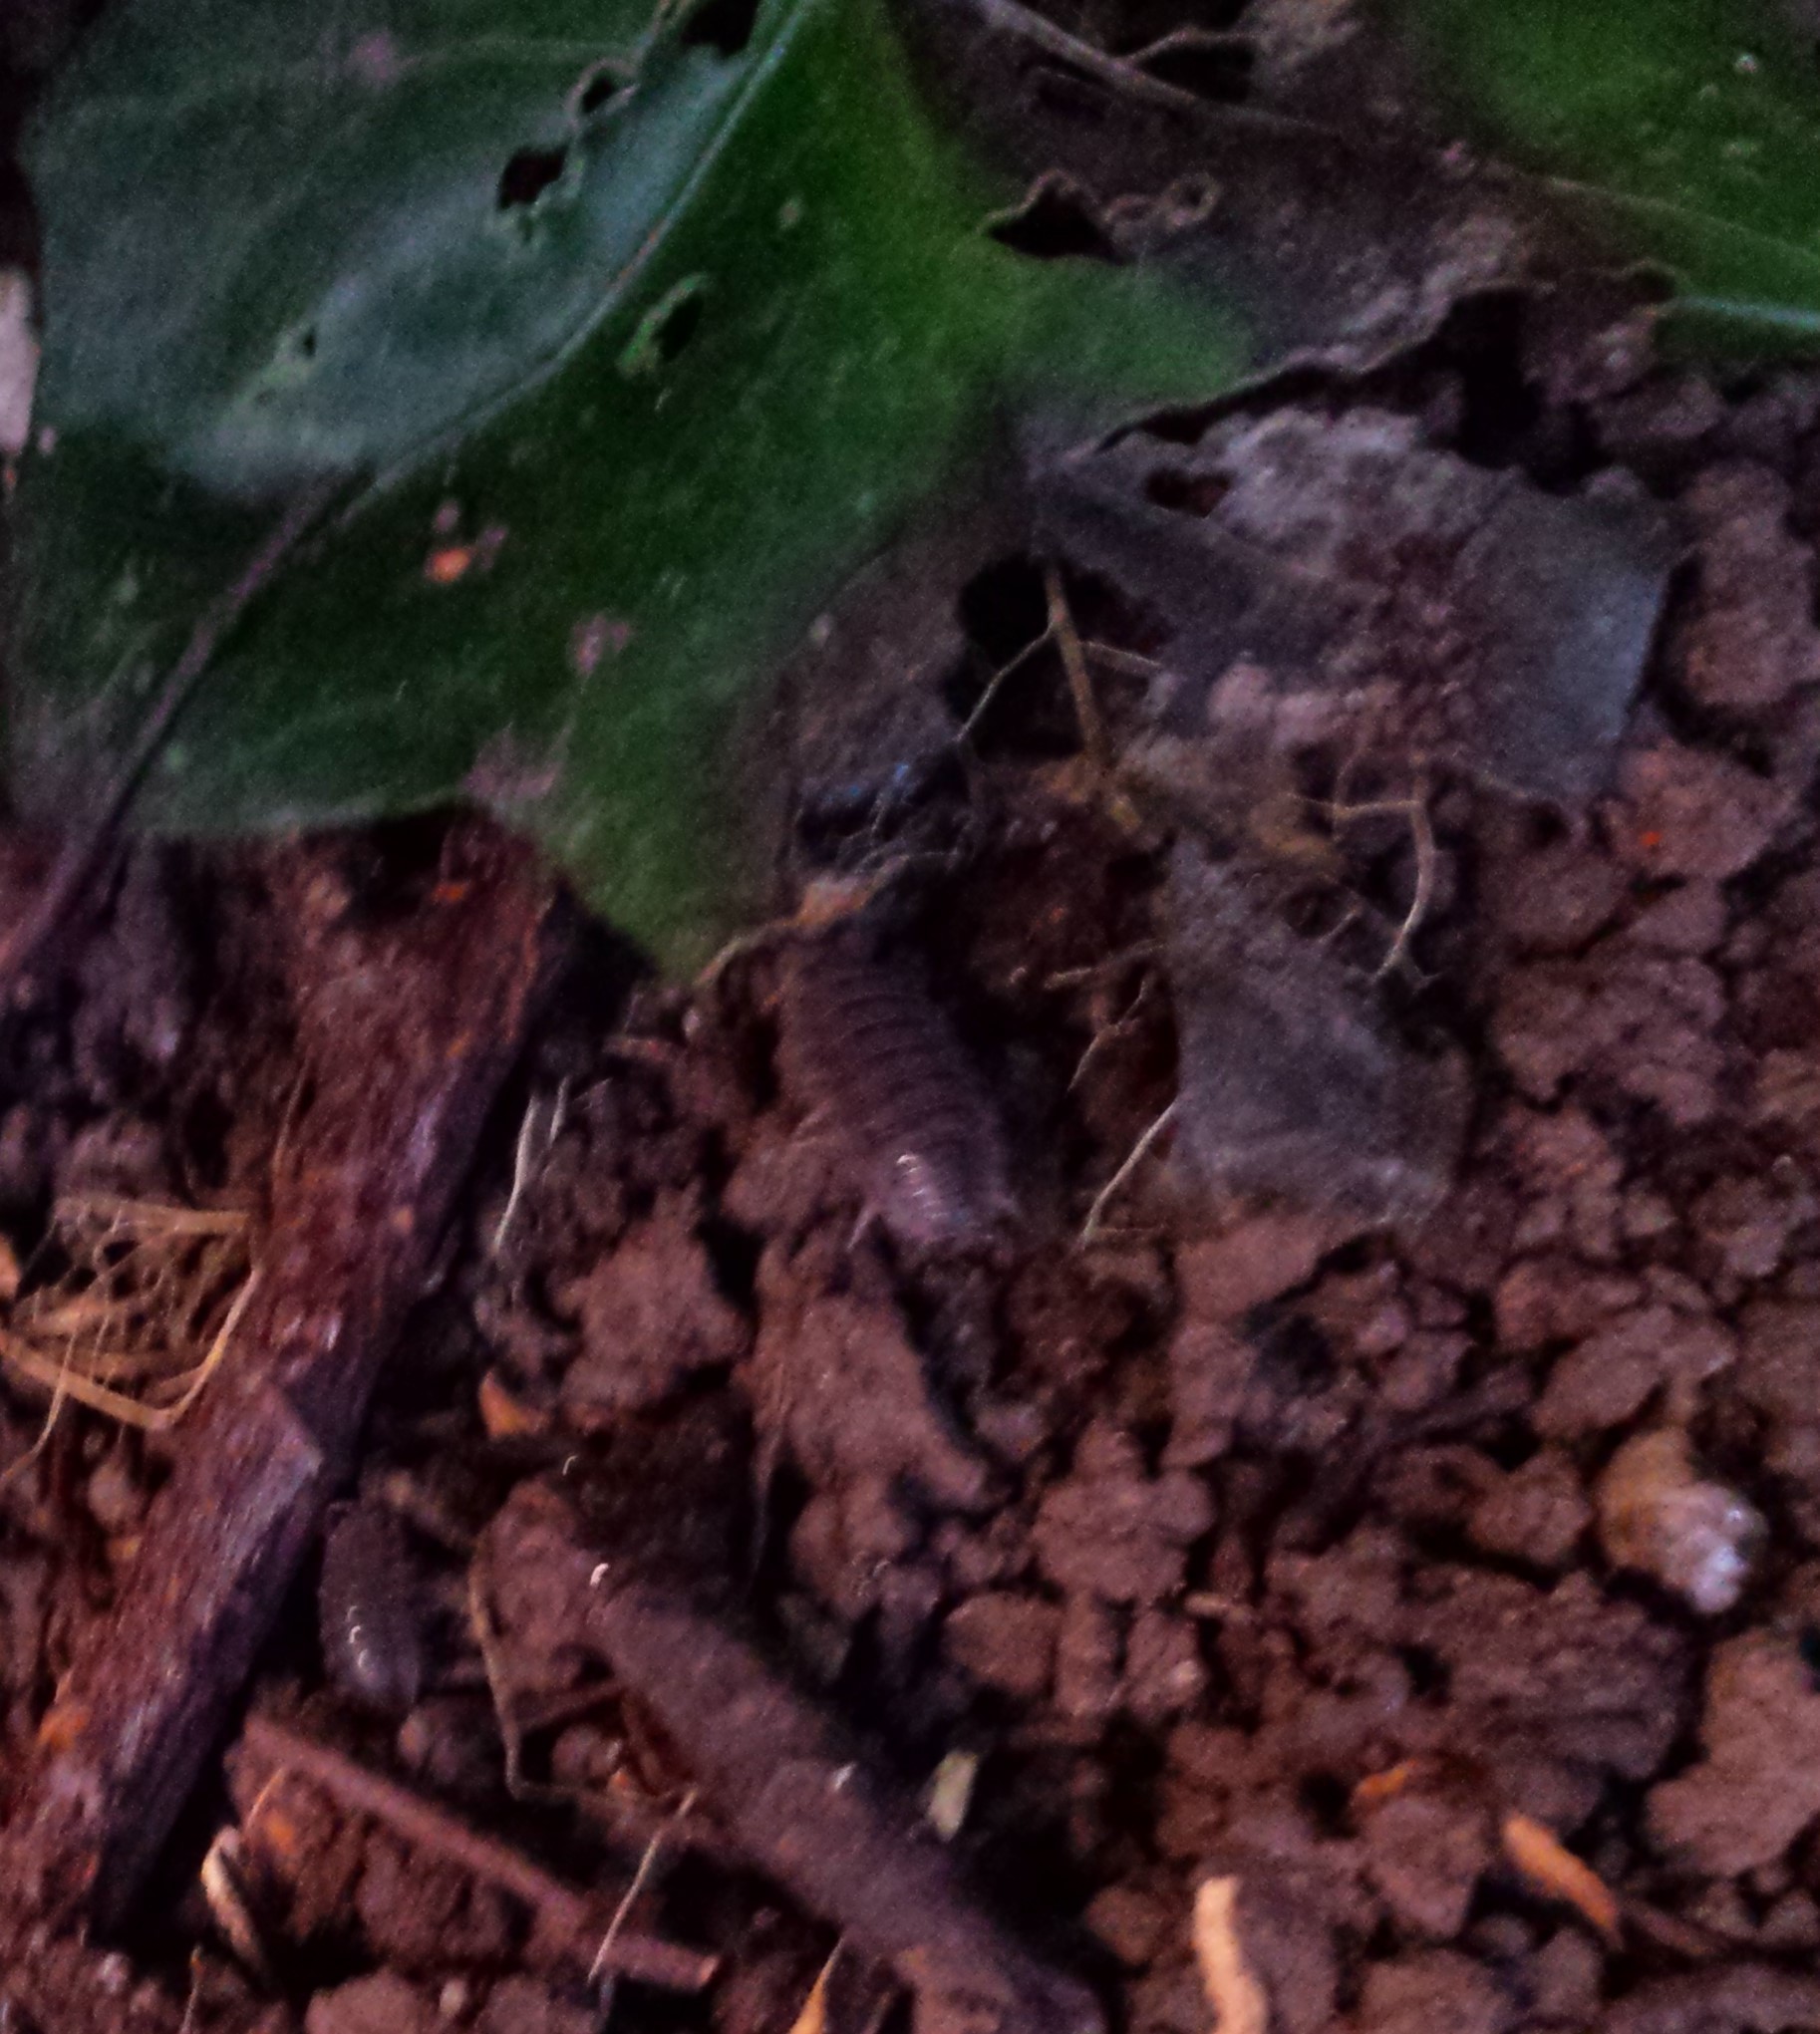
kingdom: Animalia
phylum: Arthropoda
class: Malacostraca
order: Isopoda
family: Porcellionidae
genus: Porcellio
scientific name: Porcellio scaber
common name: Common rough woodlouse
